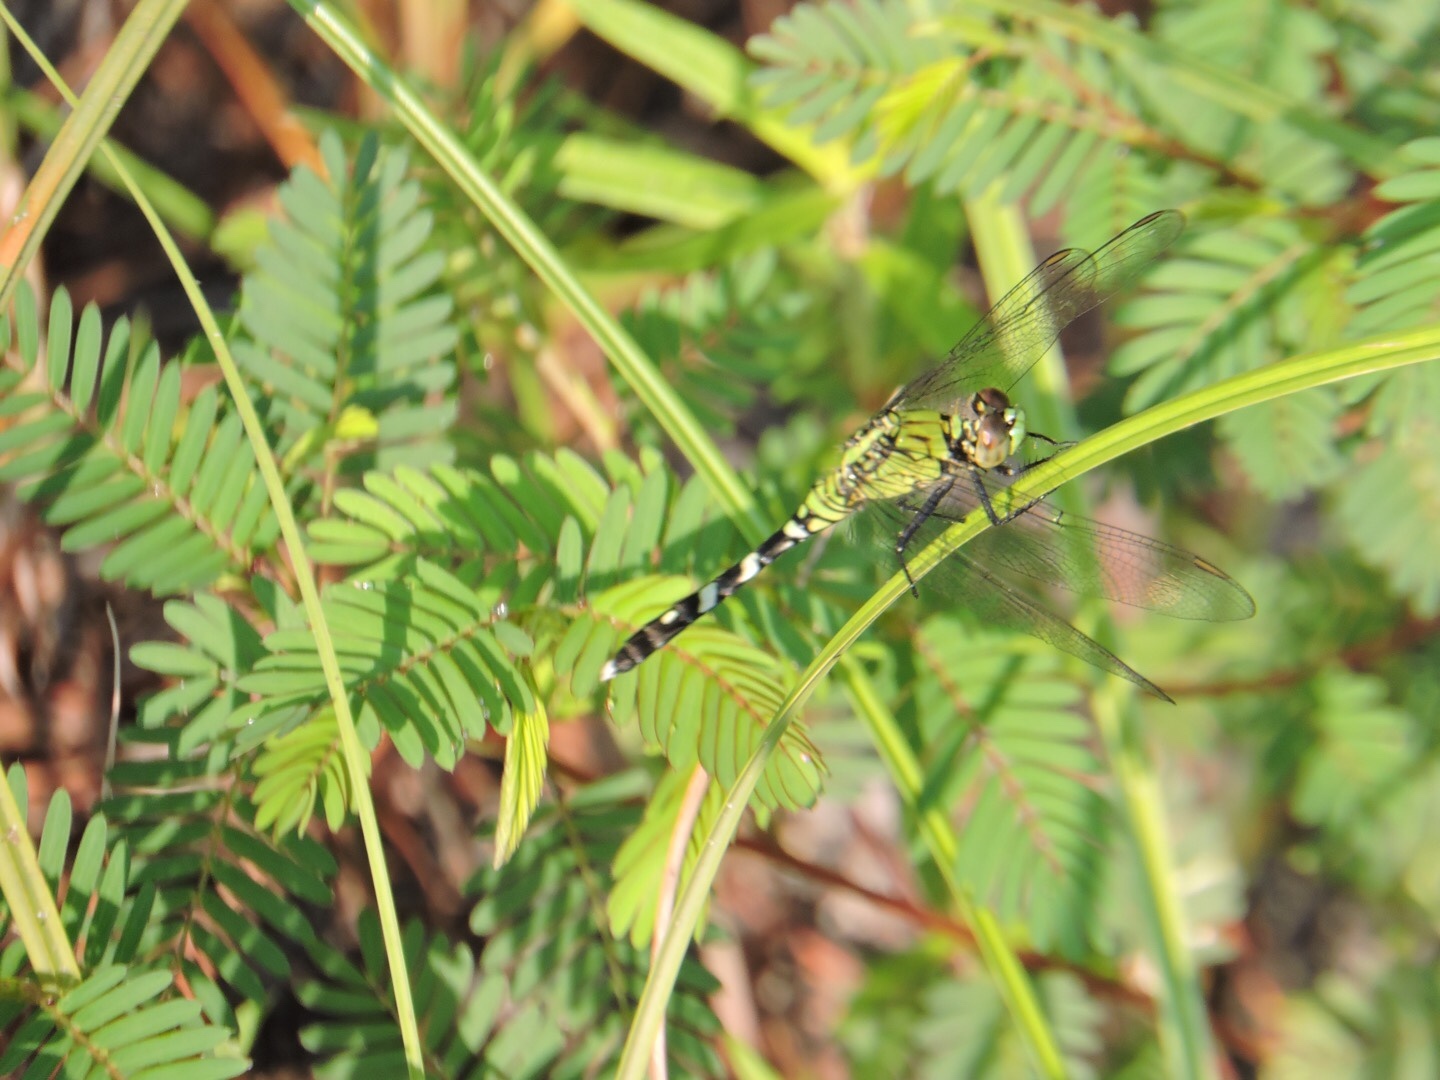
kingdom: Animalia
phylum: Arthropoda
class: Insecta
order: Odonata
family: Libellulidae
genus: Erythemis
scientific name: Erythemis simplicicollis
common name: Eastern pondhawk
